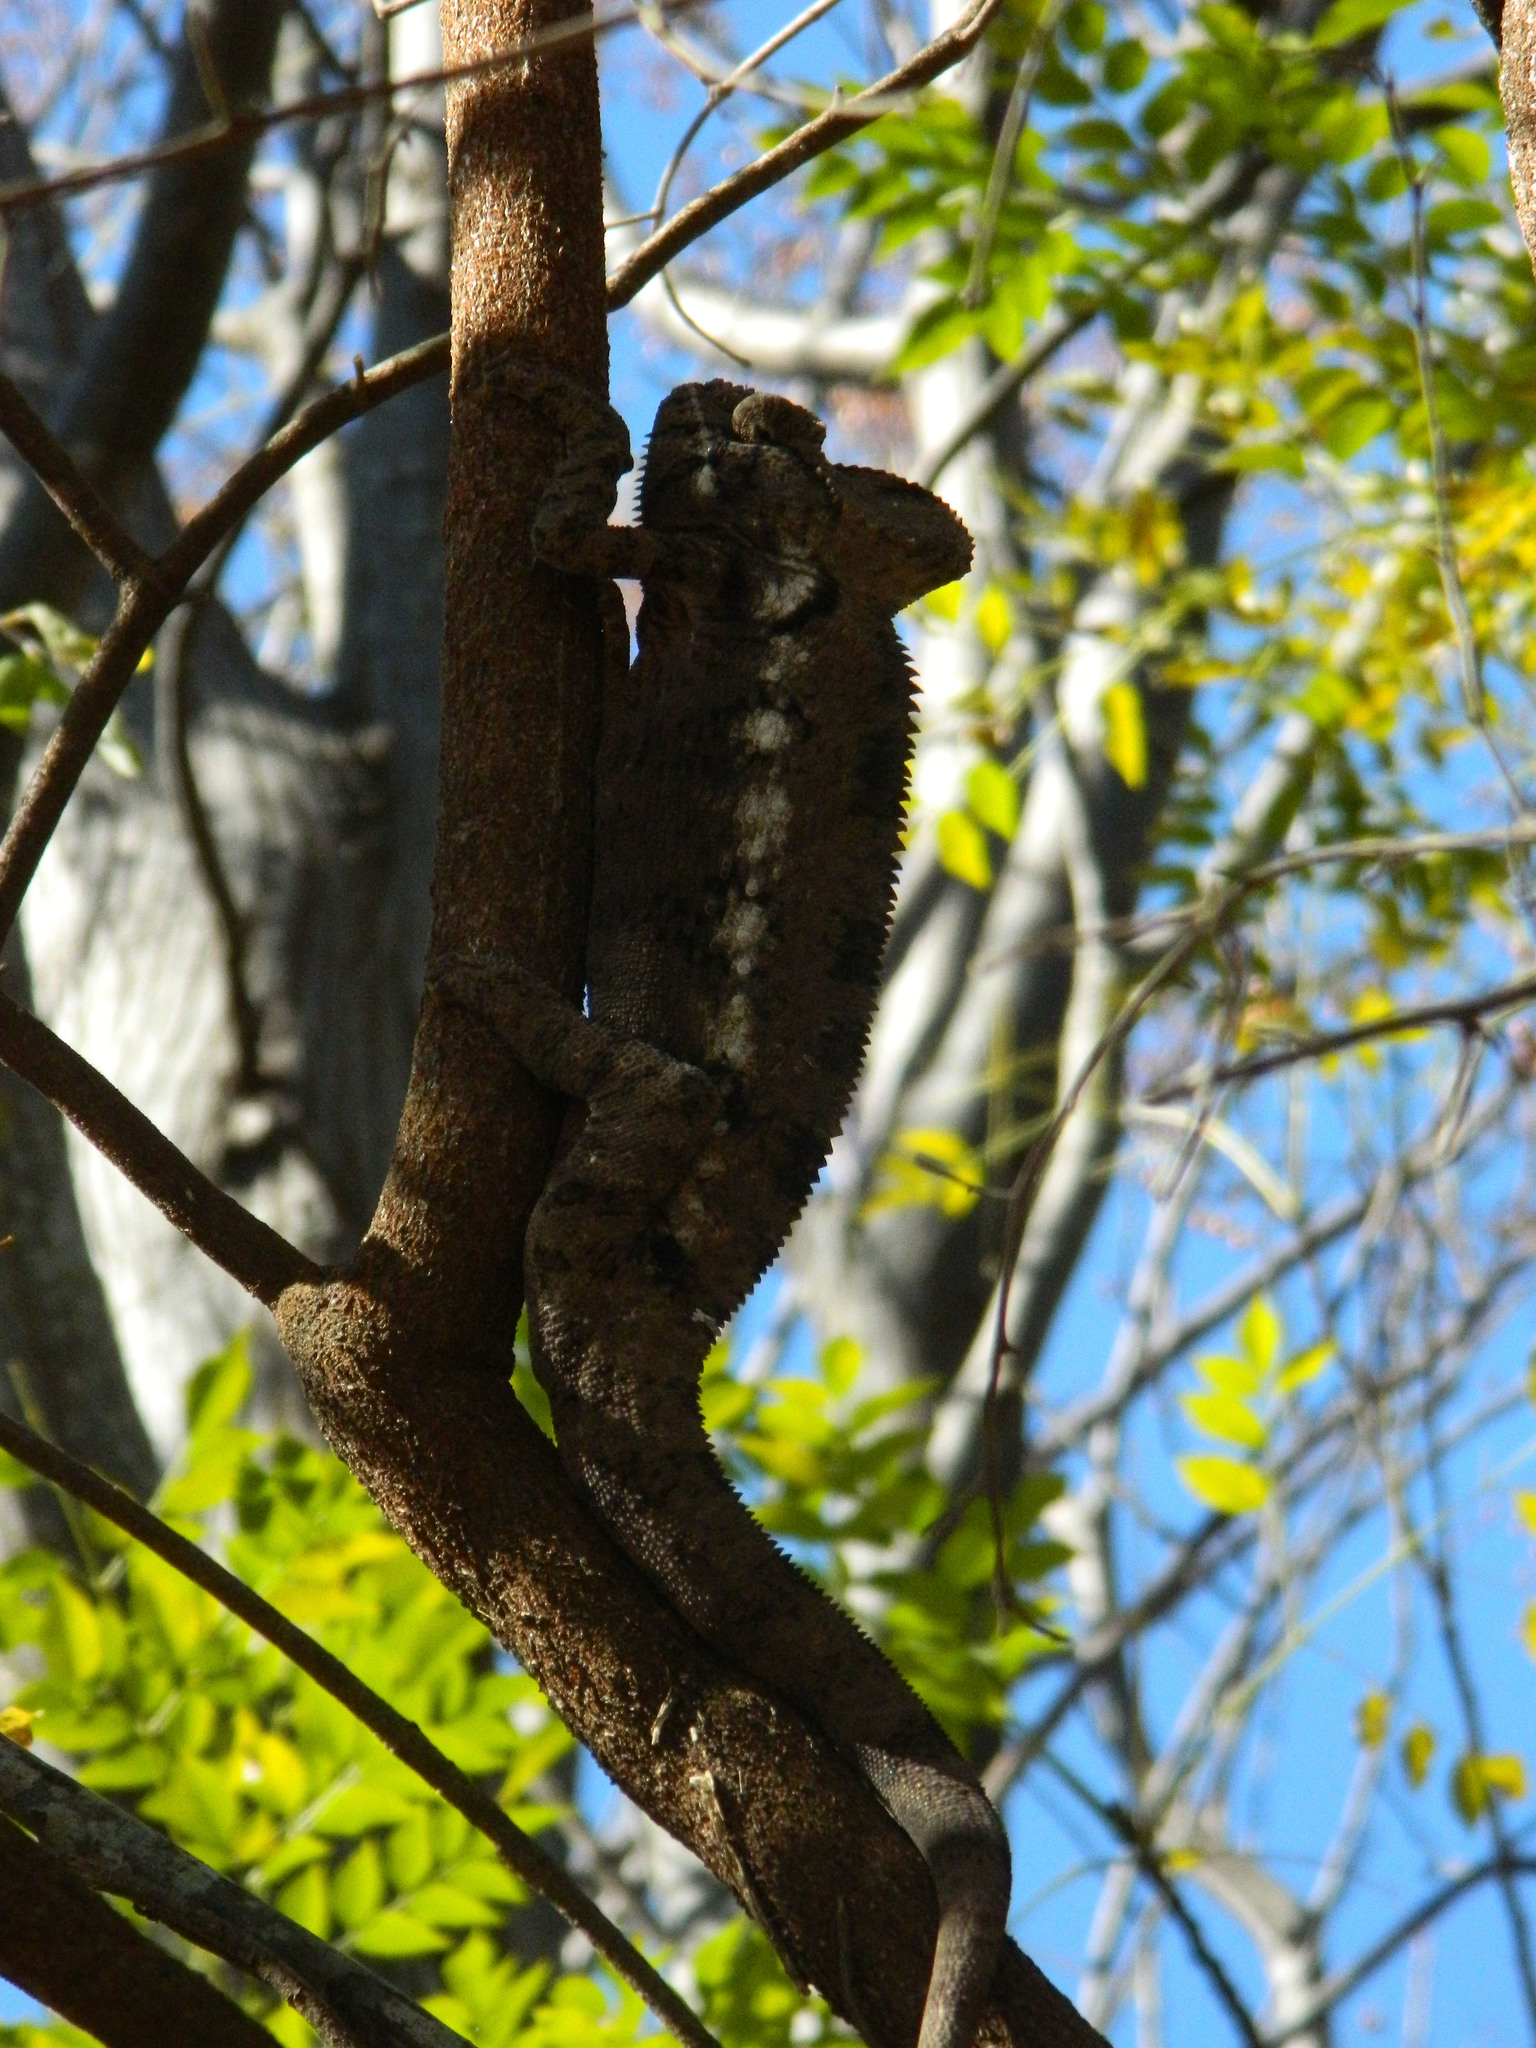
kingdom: Animalia
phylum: Chordata
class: Squamata
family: Chamaeleonidae
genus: Furcifer
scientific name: Furcifer oustaleti
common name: Oustalet's chameleon
